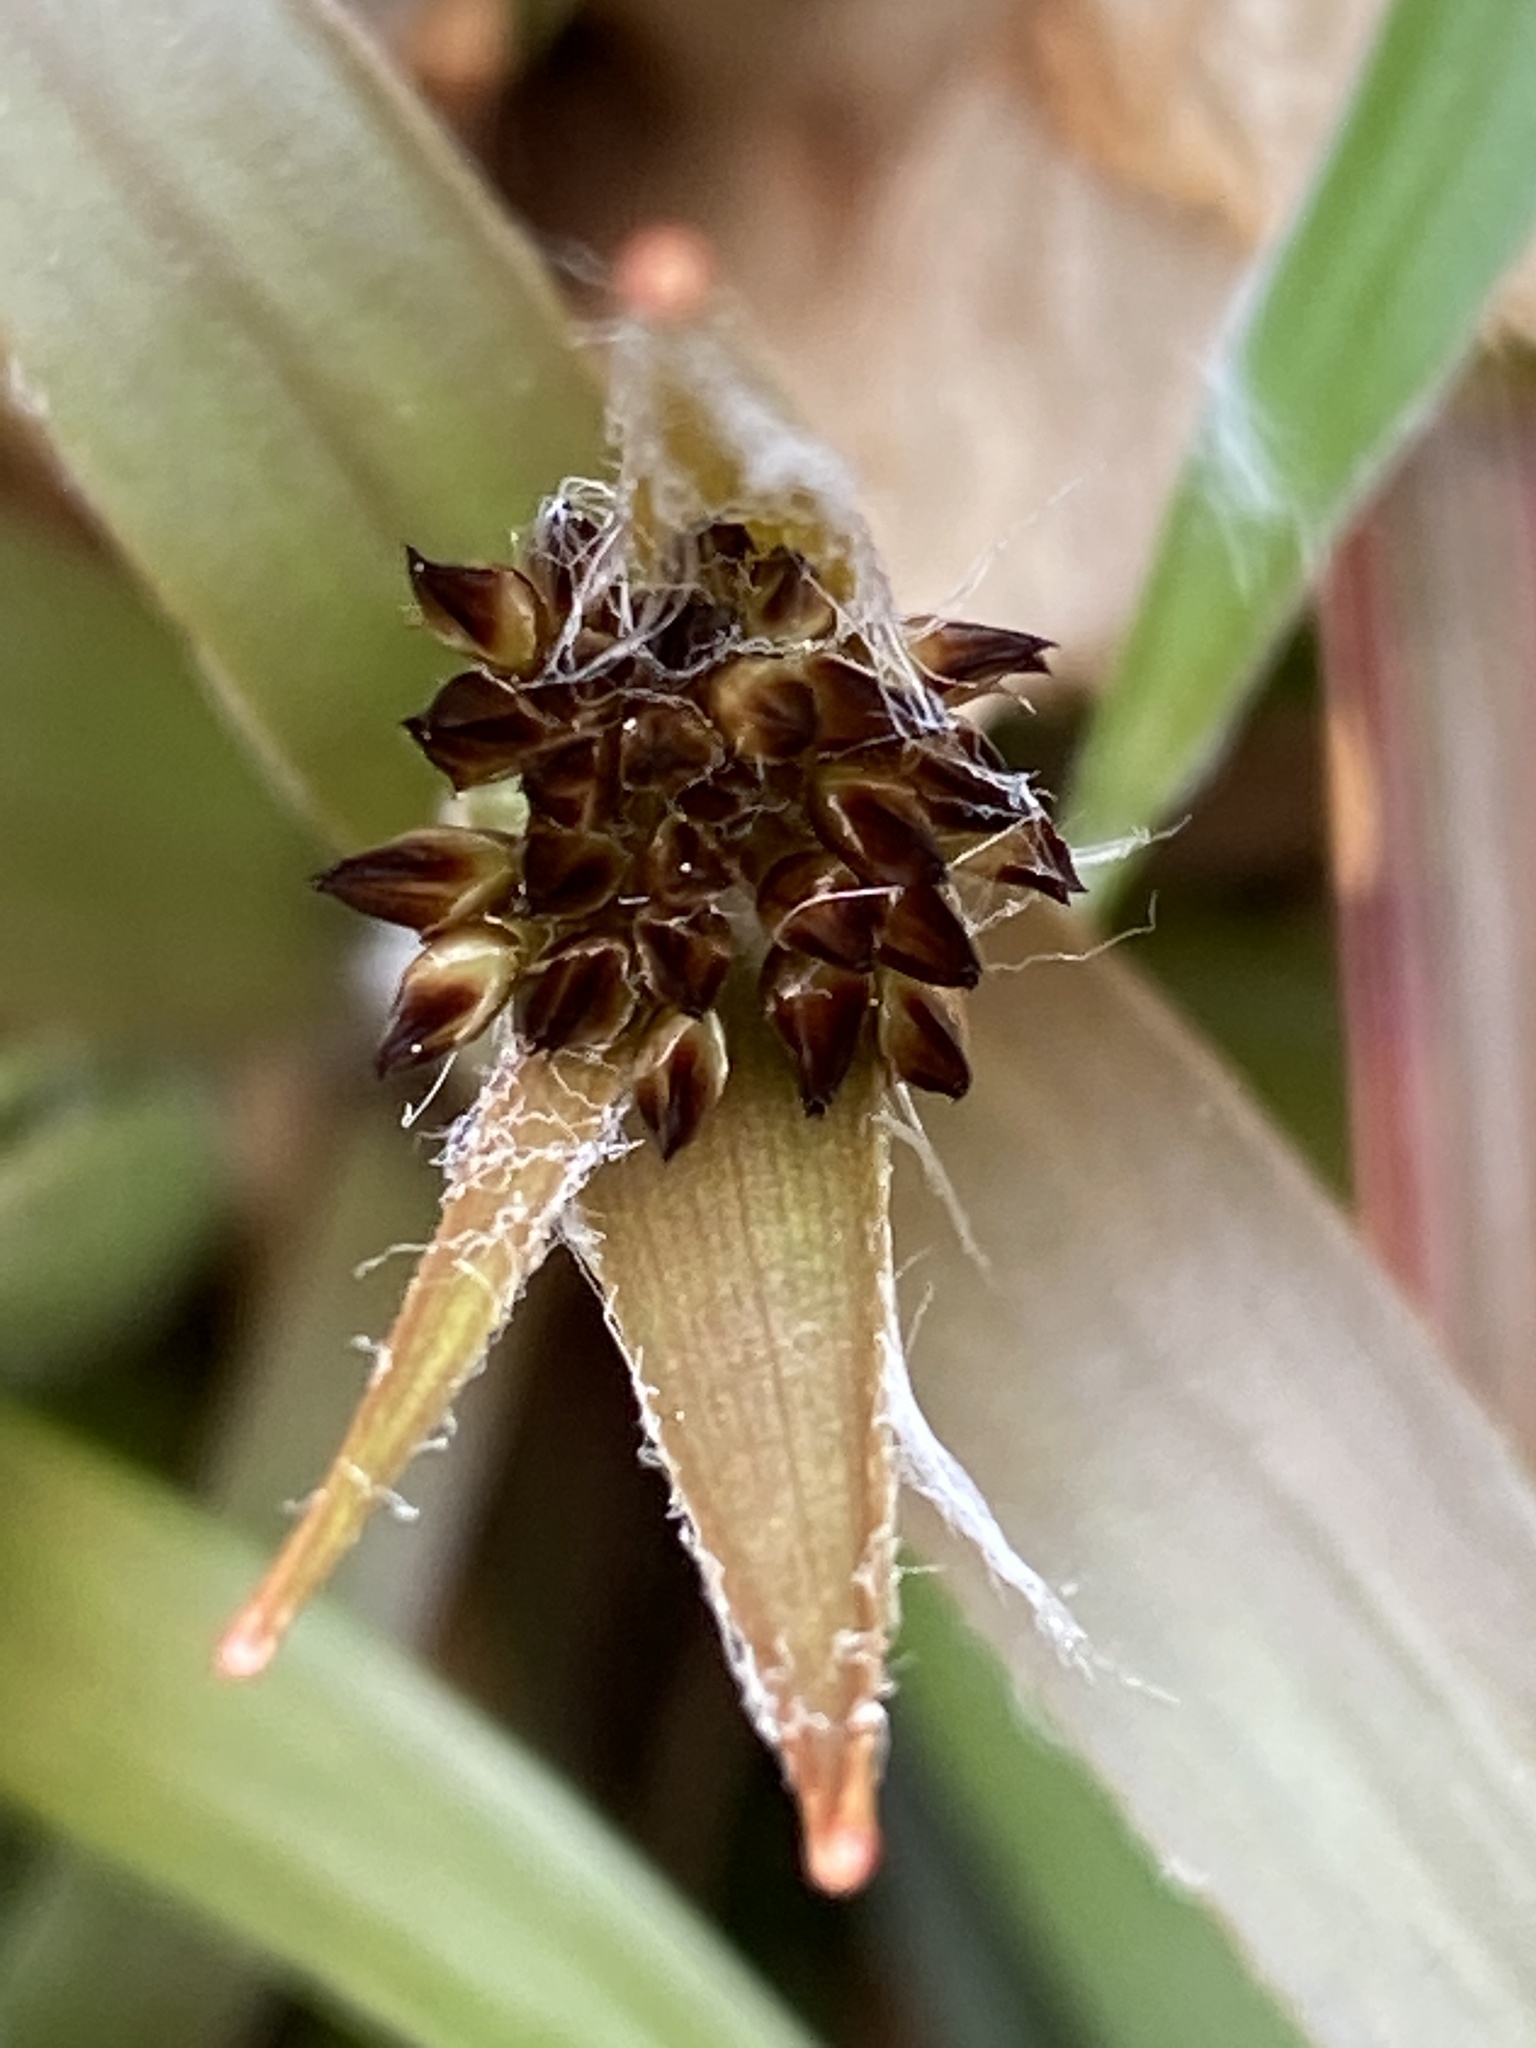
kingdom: Plantae
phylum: Tracheophyta
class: Liliopsida
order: Poales
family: Juncaceae
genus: Luzula
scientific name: Luzula acuminata
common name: Hairy woodrush
